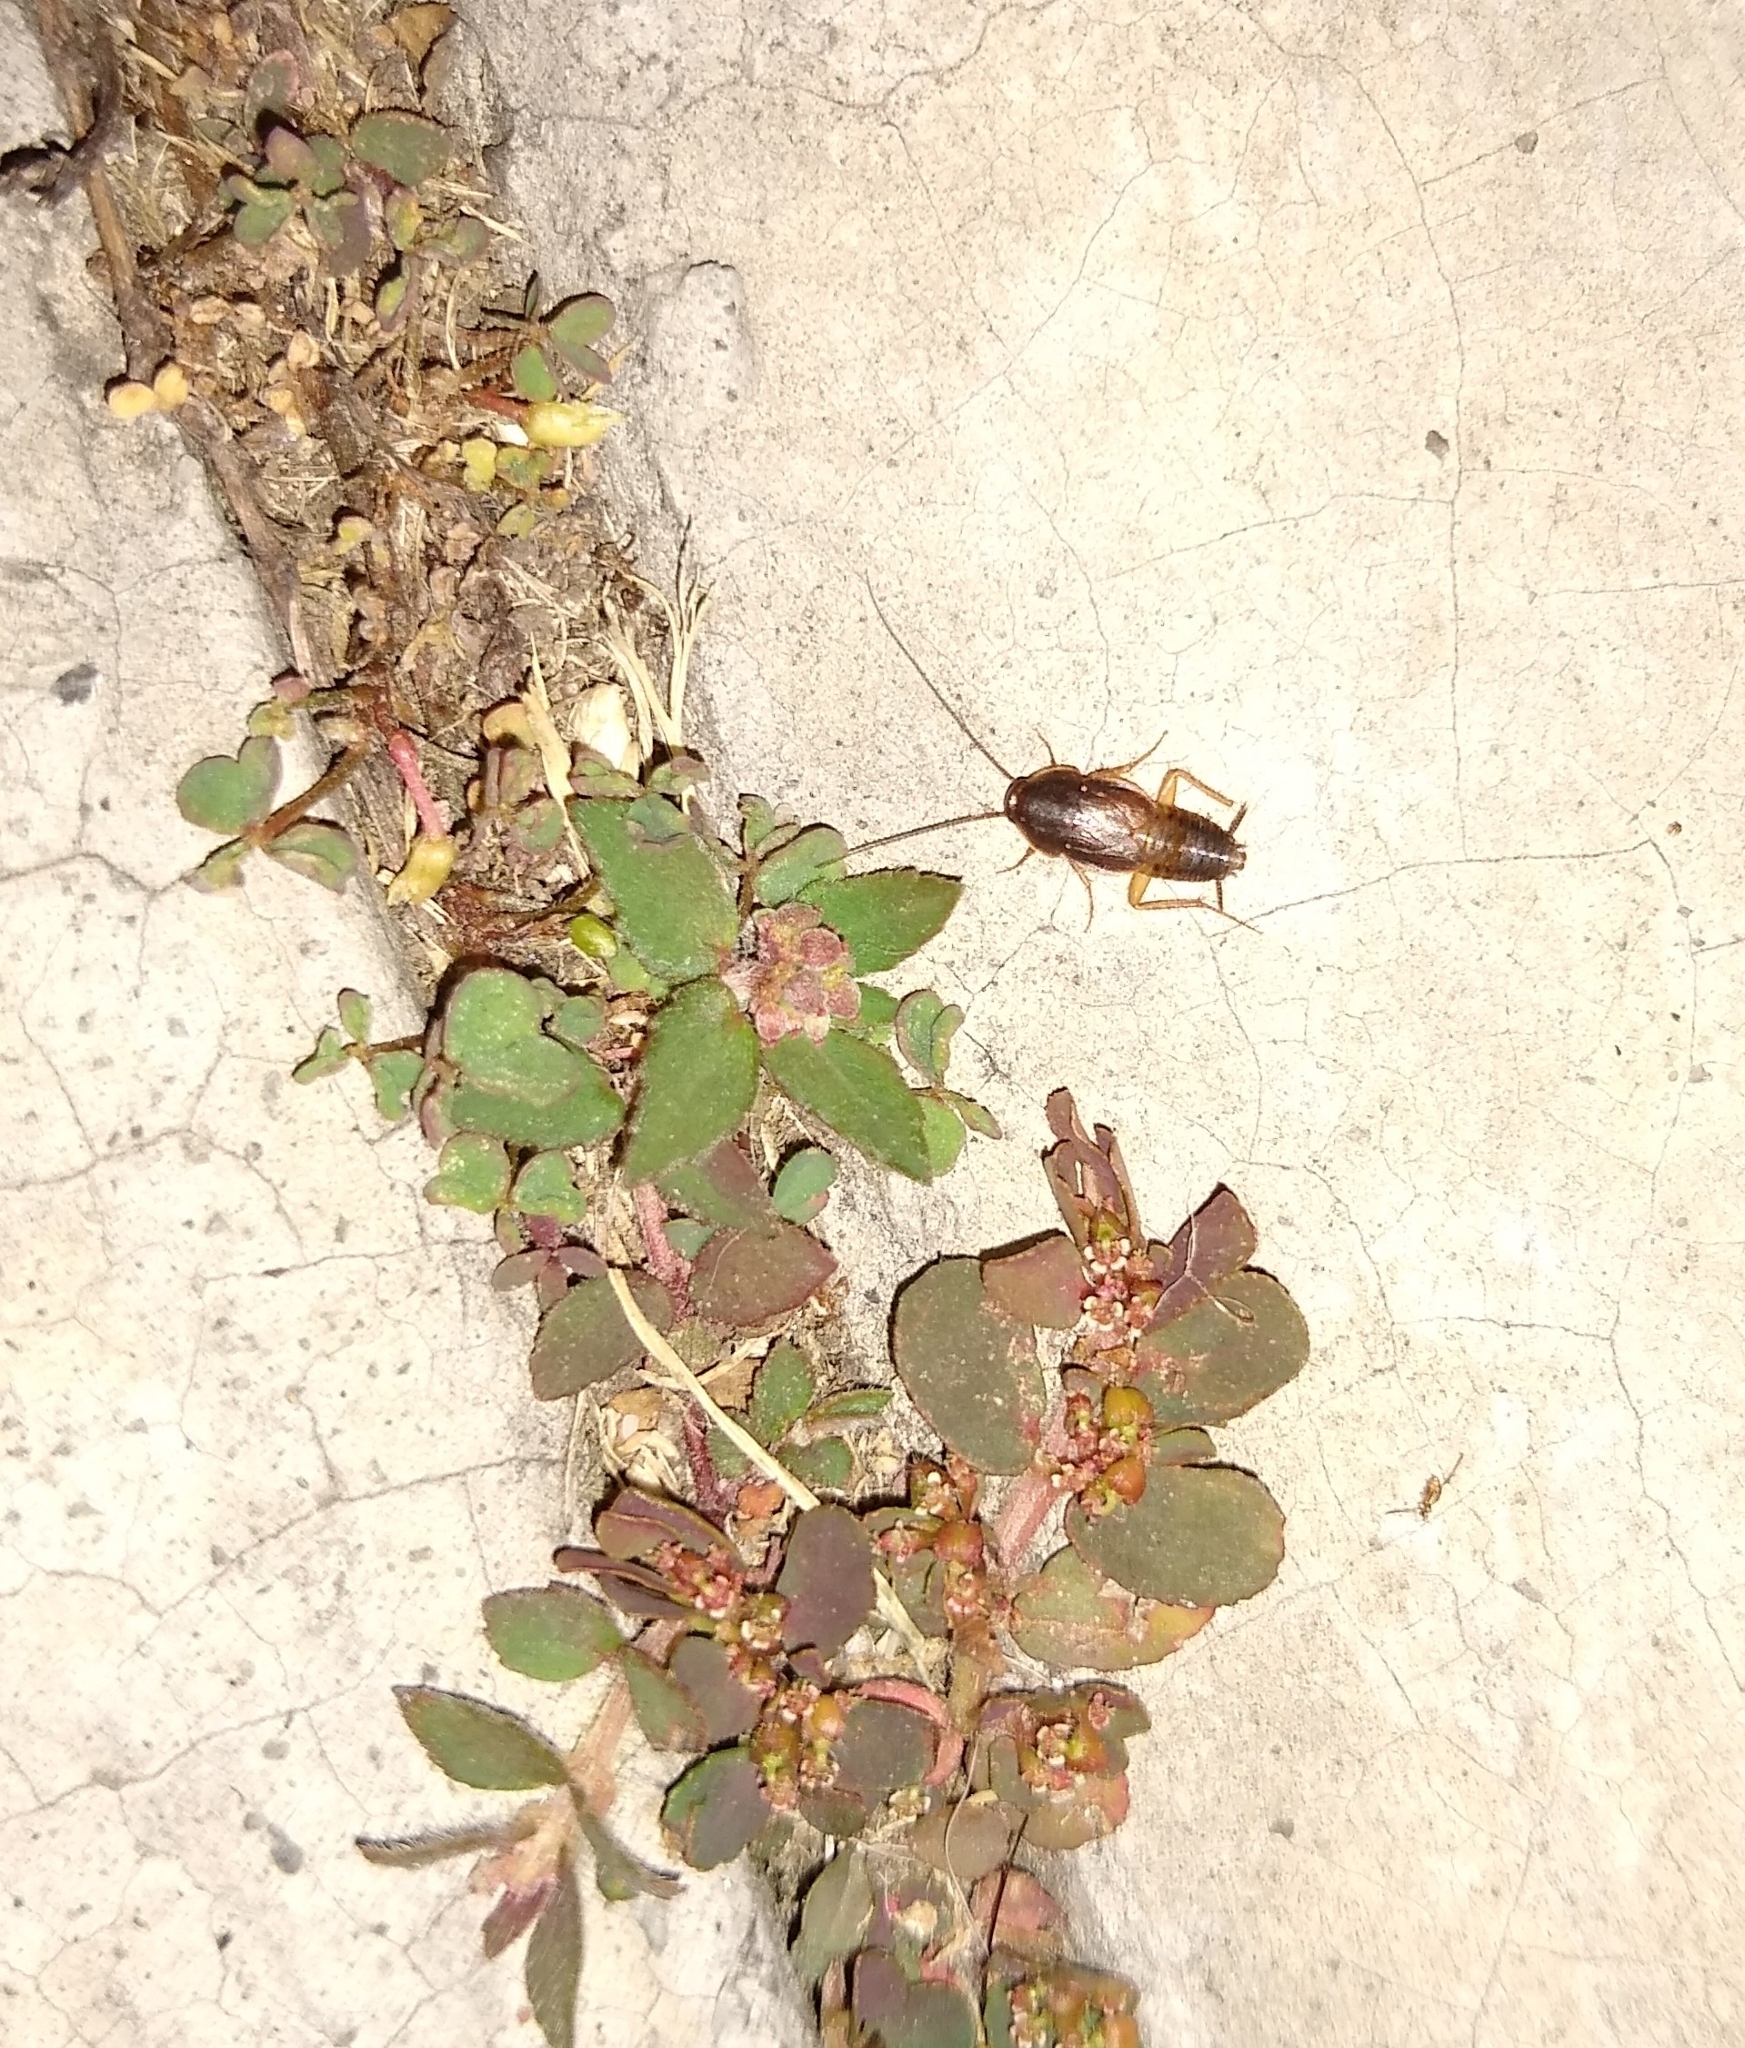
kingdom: Animalia
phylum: Arthropoda
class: Insecta
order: Blattodea
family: Corydiidae
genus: Myrmecoblatta
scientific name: Myrmecoblatta hebardi
